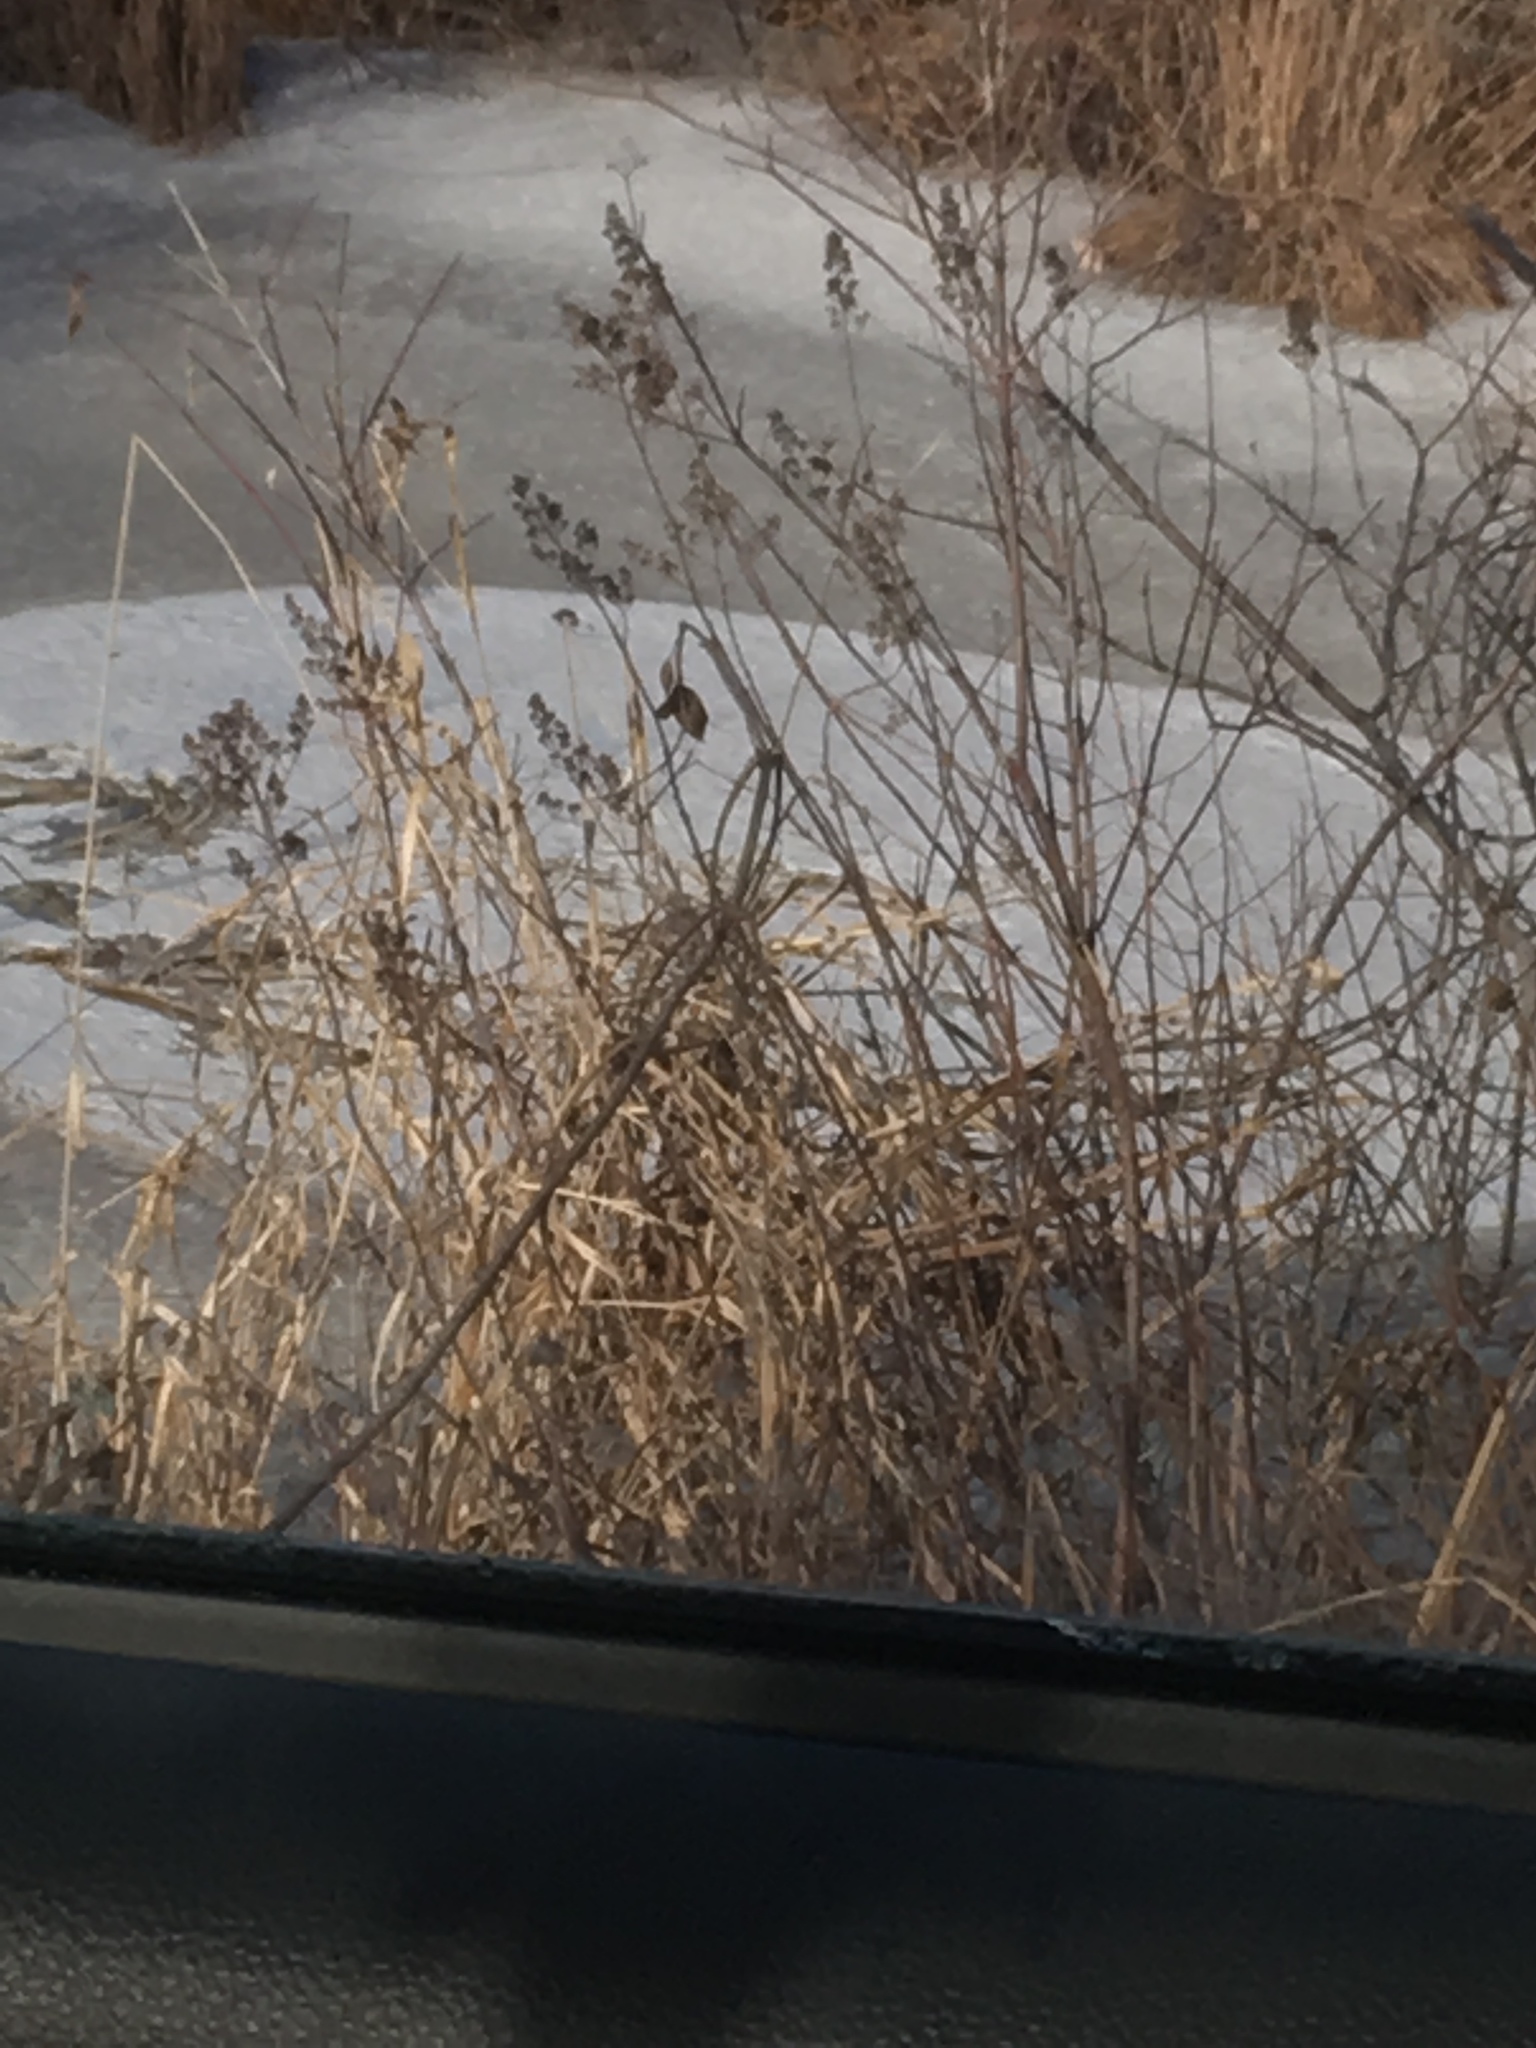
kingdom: Plantae
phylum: Tracheophyta
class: Magnoliopsida
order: Rosales
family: Rosaceae
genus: Spiraea
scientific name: Spiraea alba
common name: Pale bridewort
